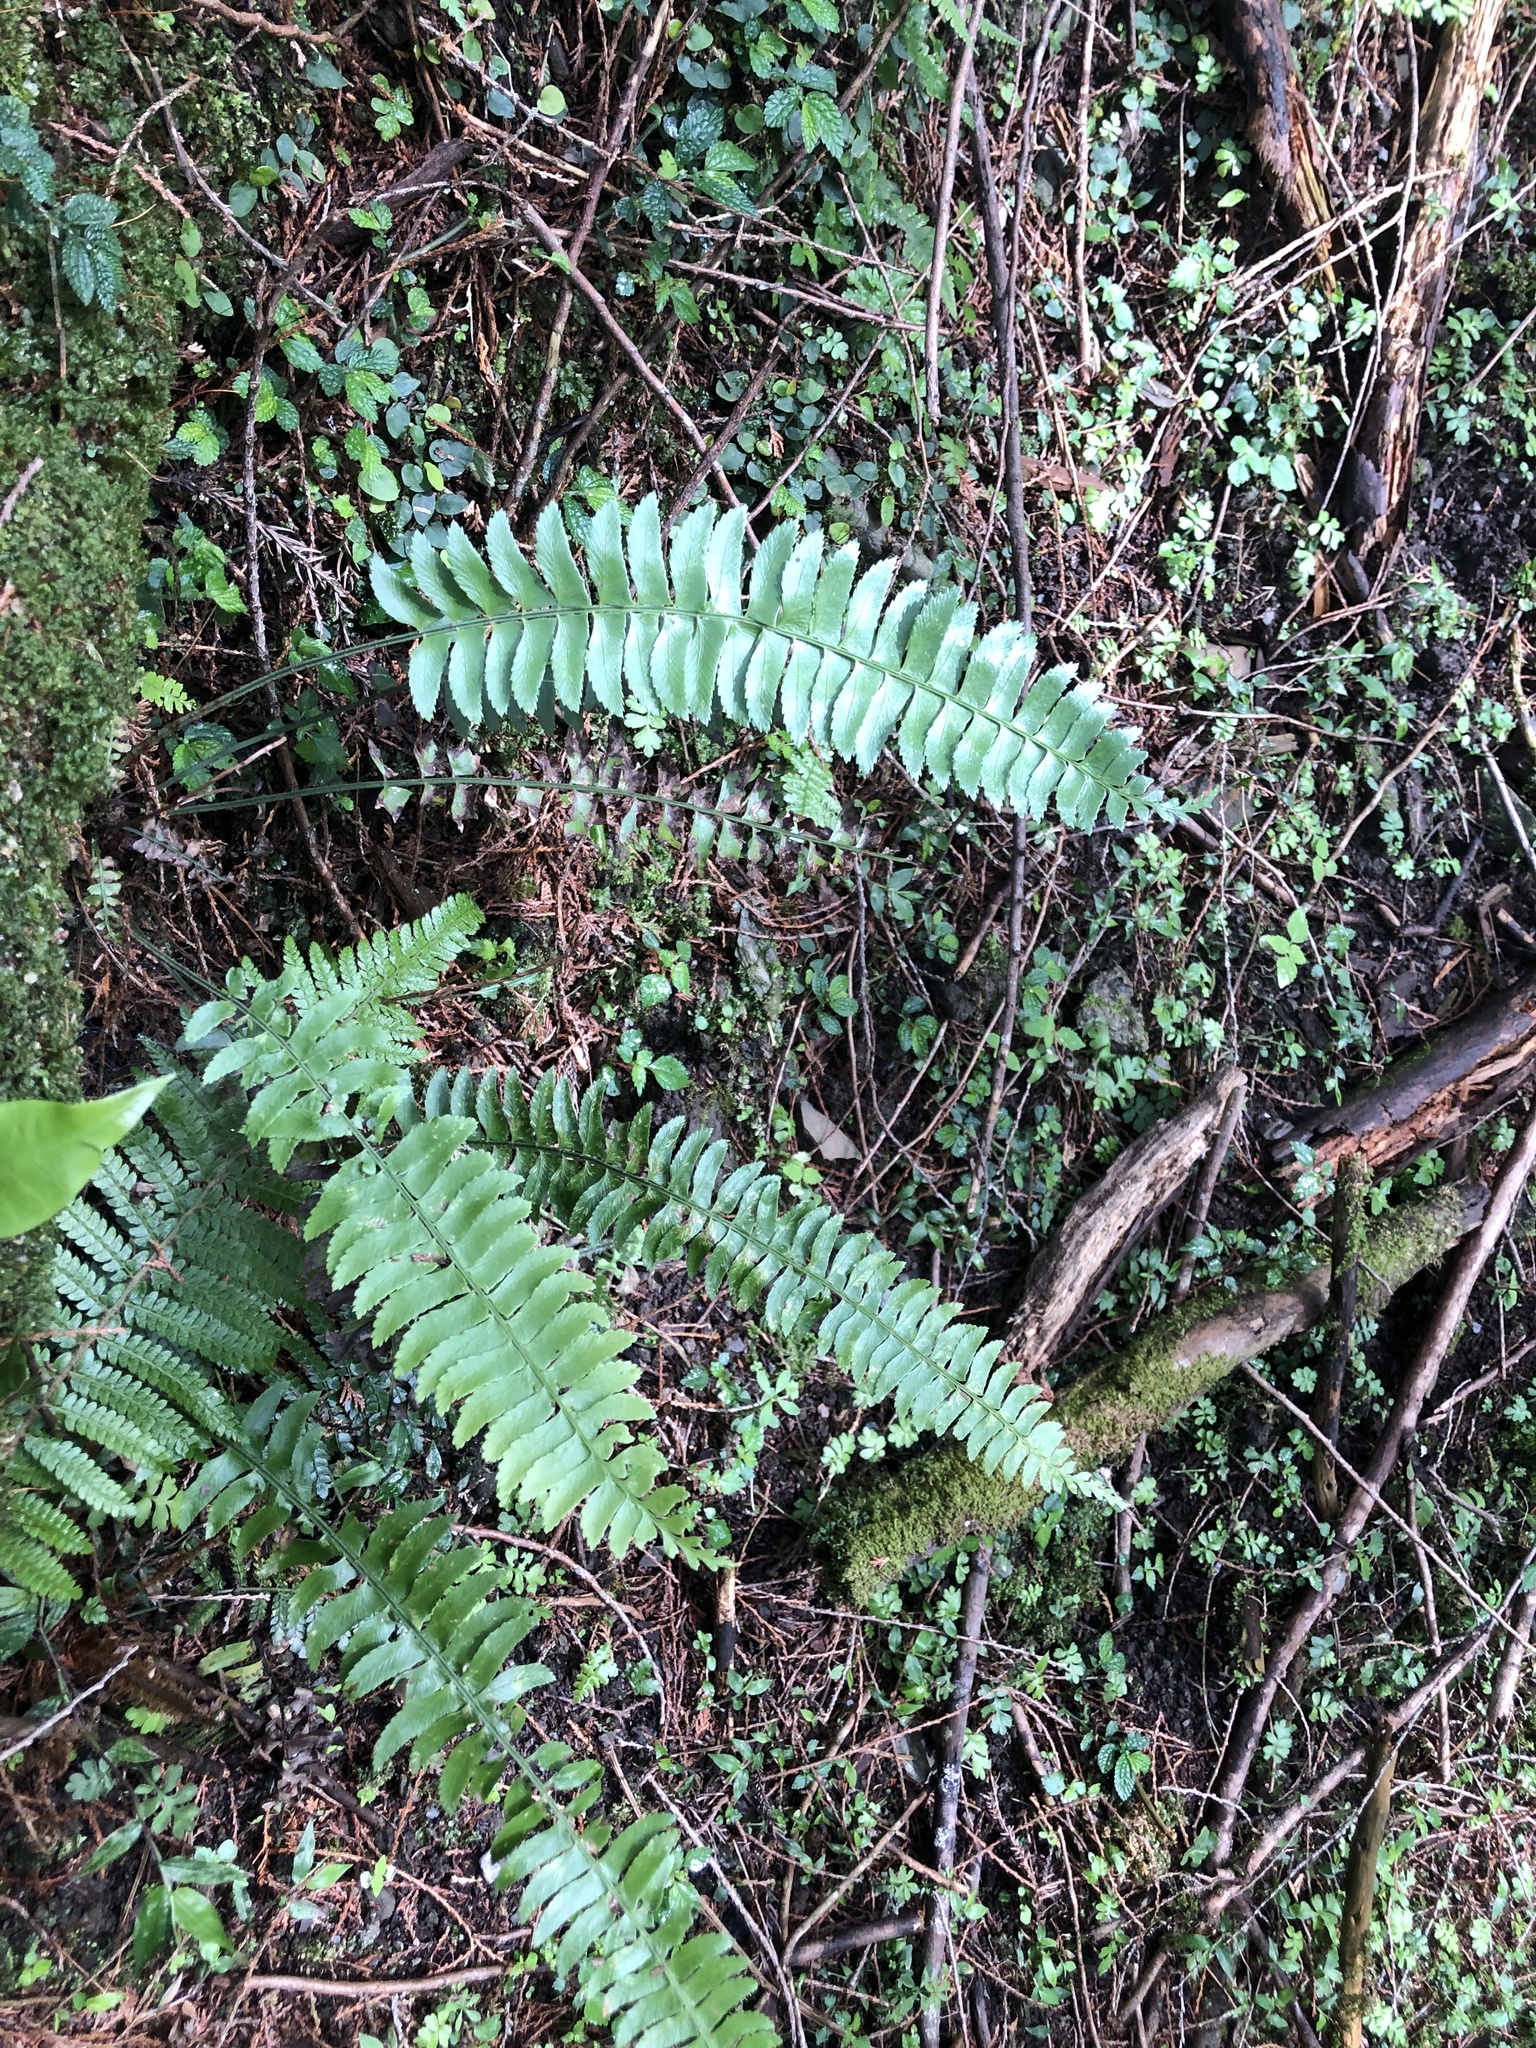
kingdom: Plantae
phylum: Tracheophyta
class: Polypodiopsida
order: Polypodiales
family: Dryopteridaceae
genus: Polystichum
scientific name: Polystichum acutidens
